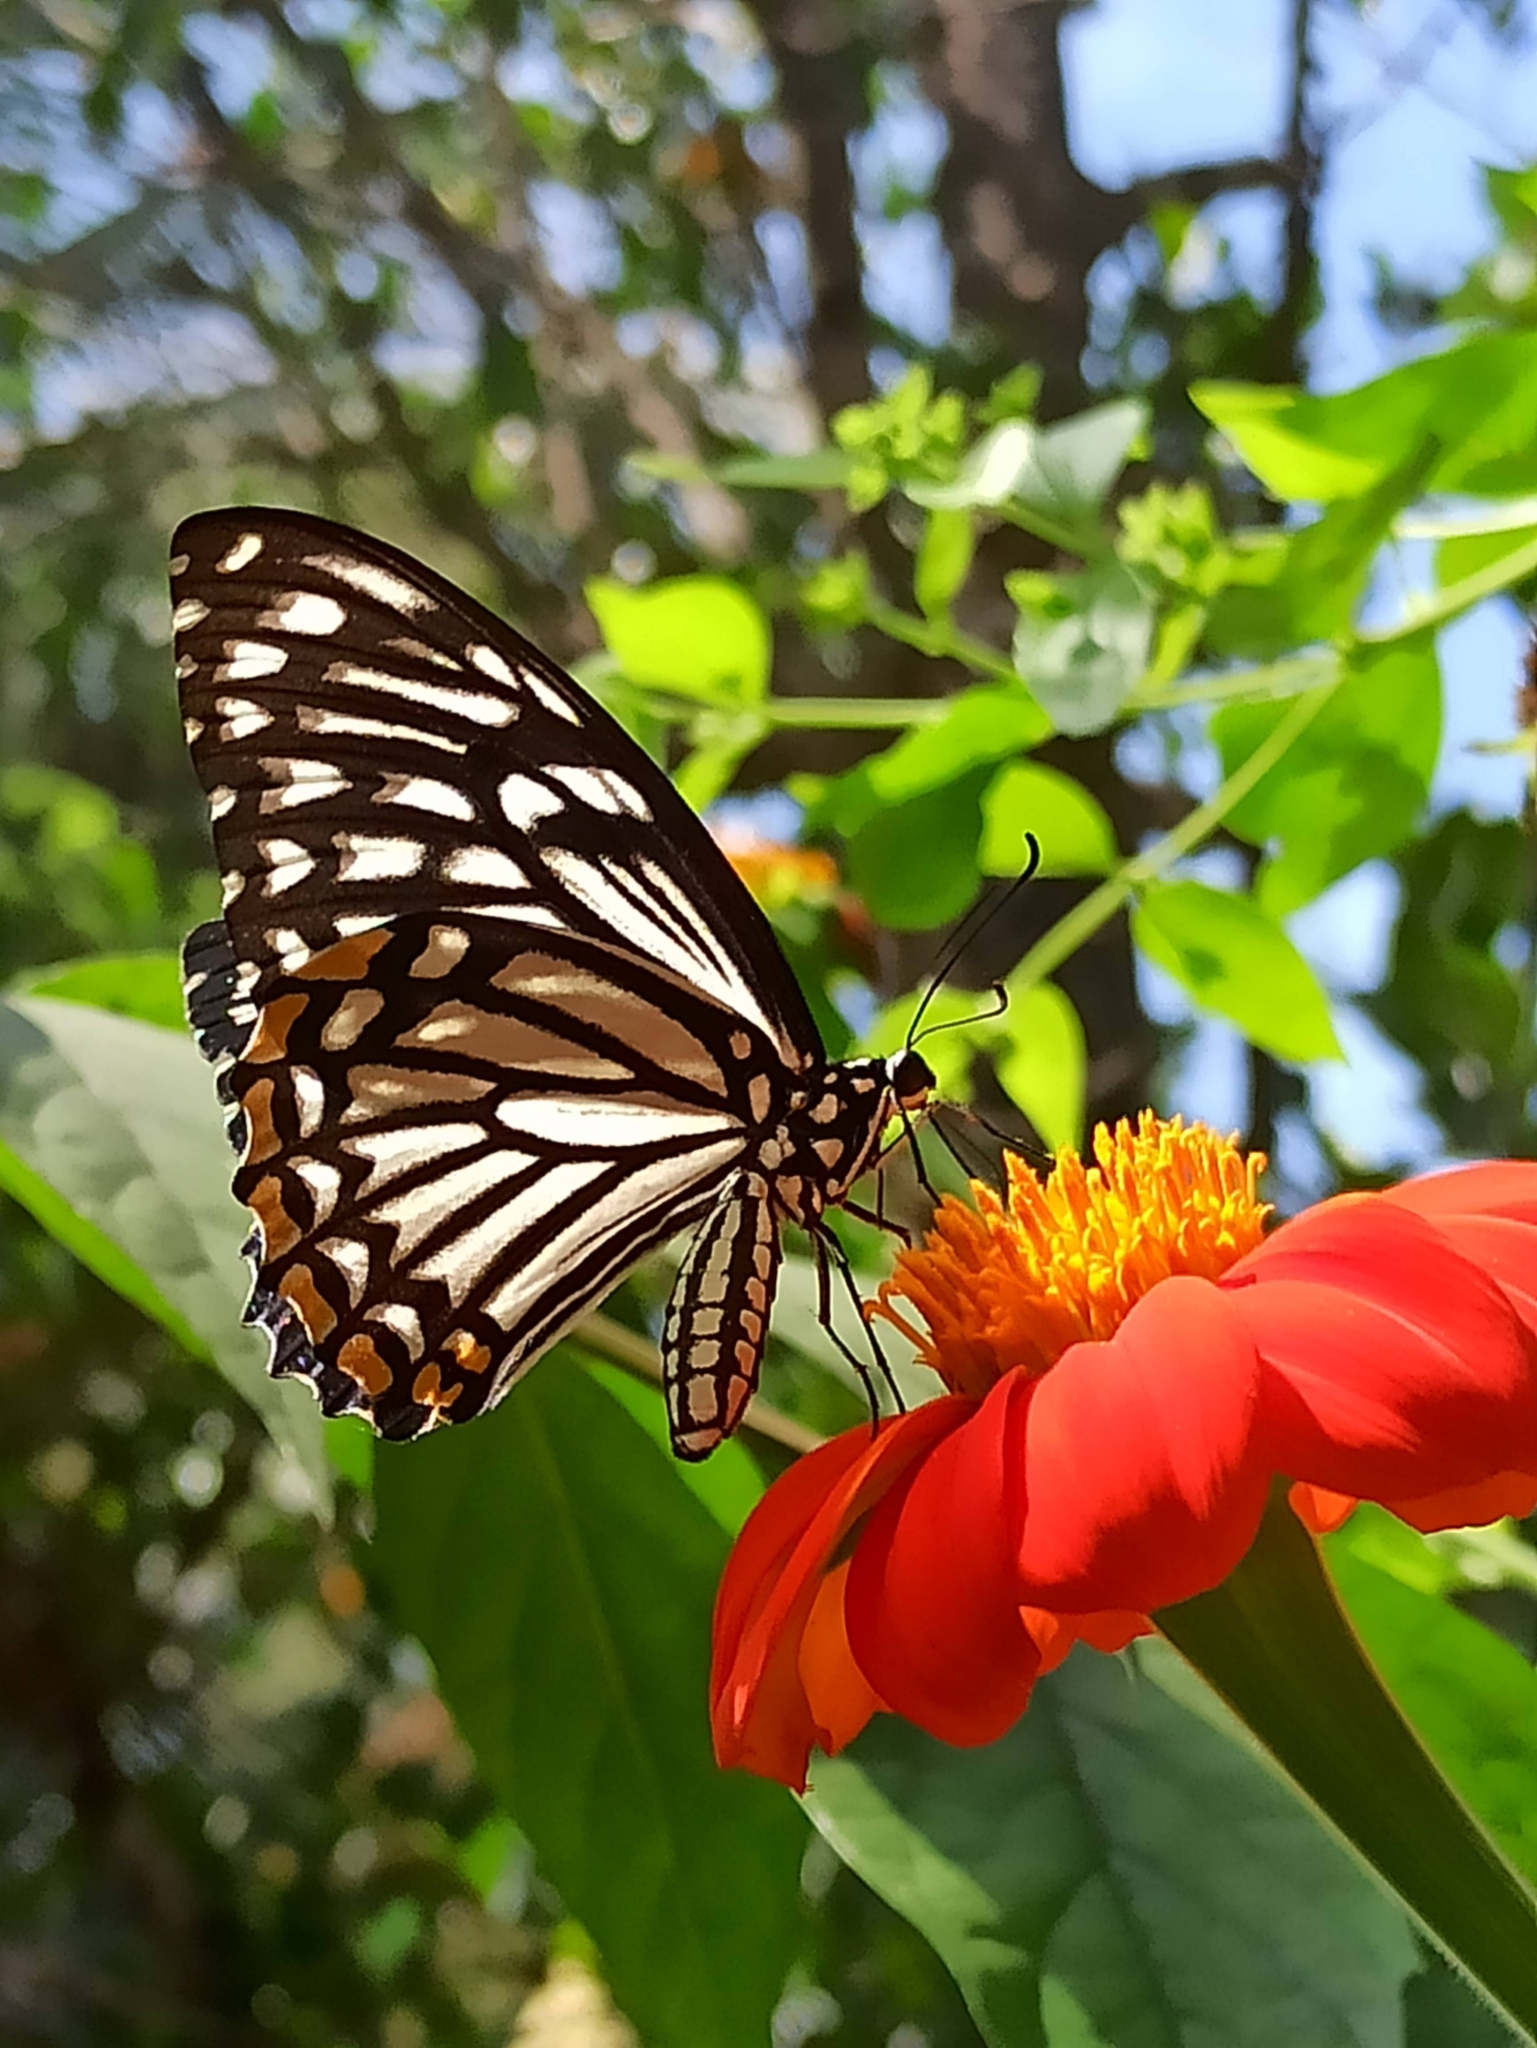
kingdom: Animalia
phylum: Arthropoda
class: Insecta
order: Lepidoptera
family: Papilionidae
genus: Chilasa
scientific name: Chilasa clytia
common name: Common mime
